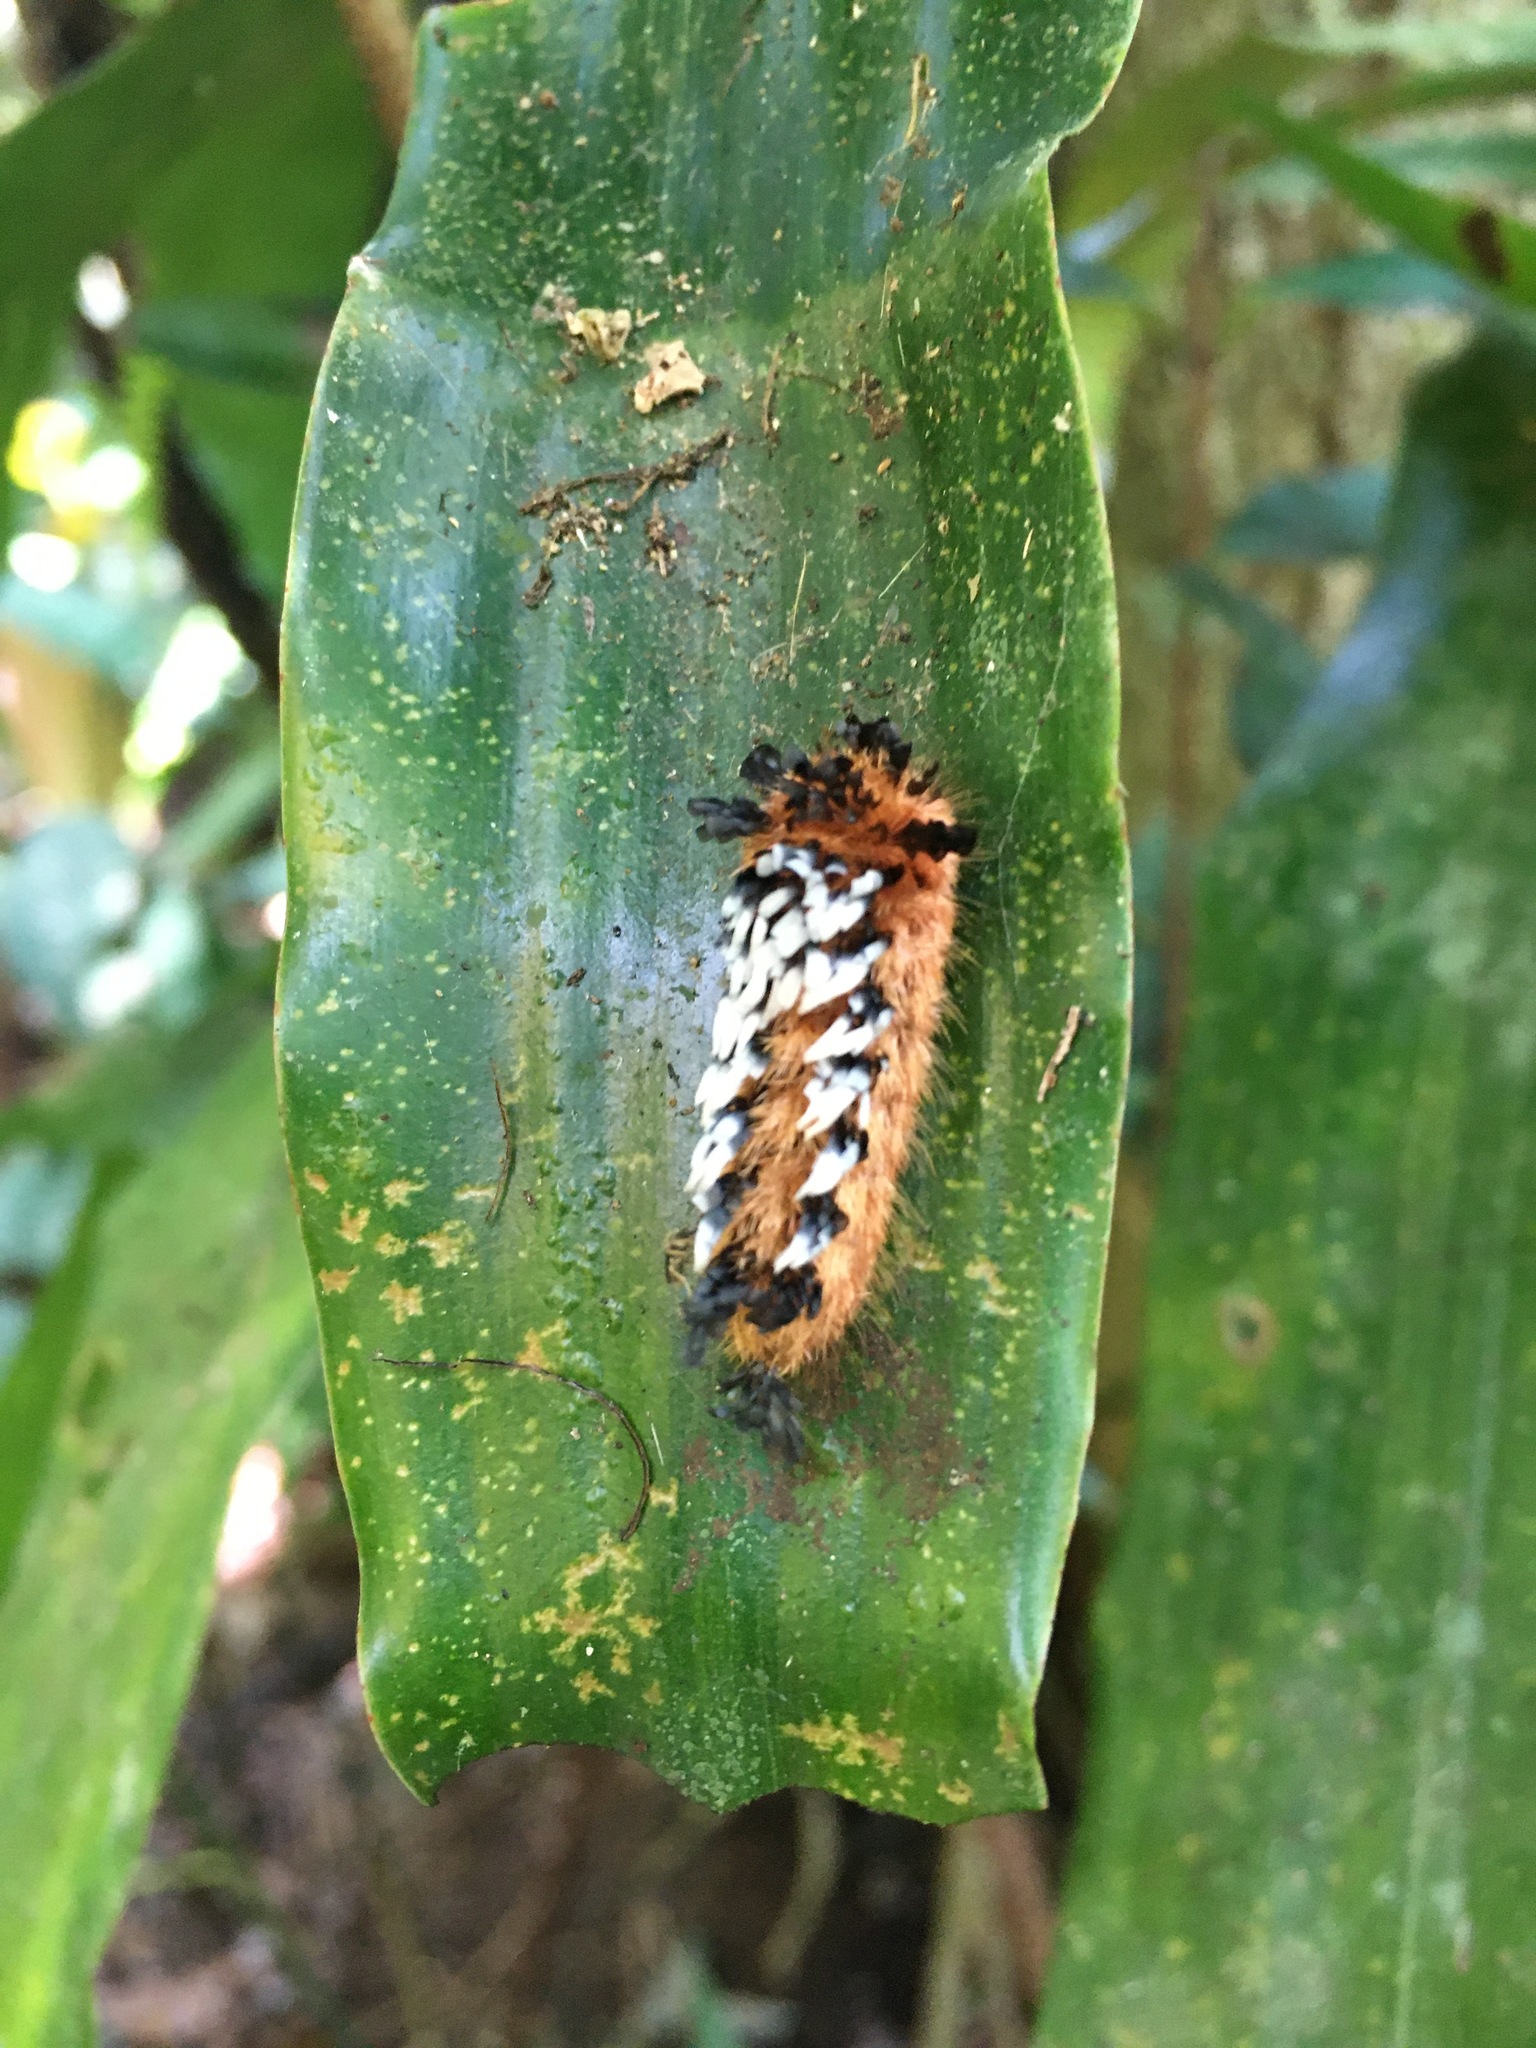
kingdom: Animalia
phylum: Arthropoda
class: Insecta
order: Lepidoptera
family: Bombycidae
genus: Prothysana
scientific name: Prothysana
